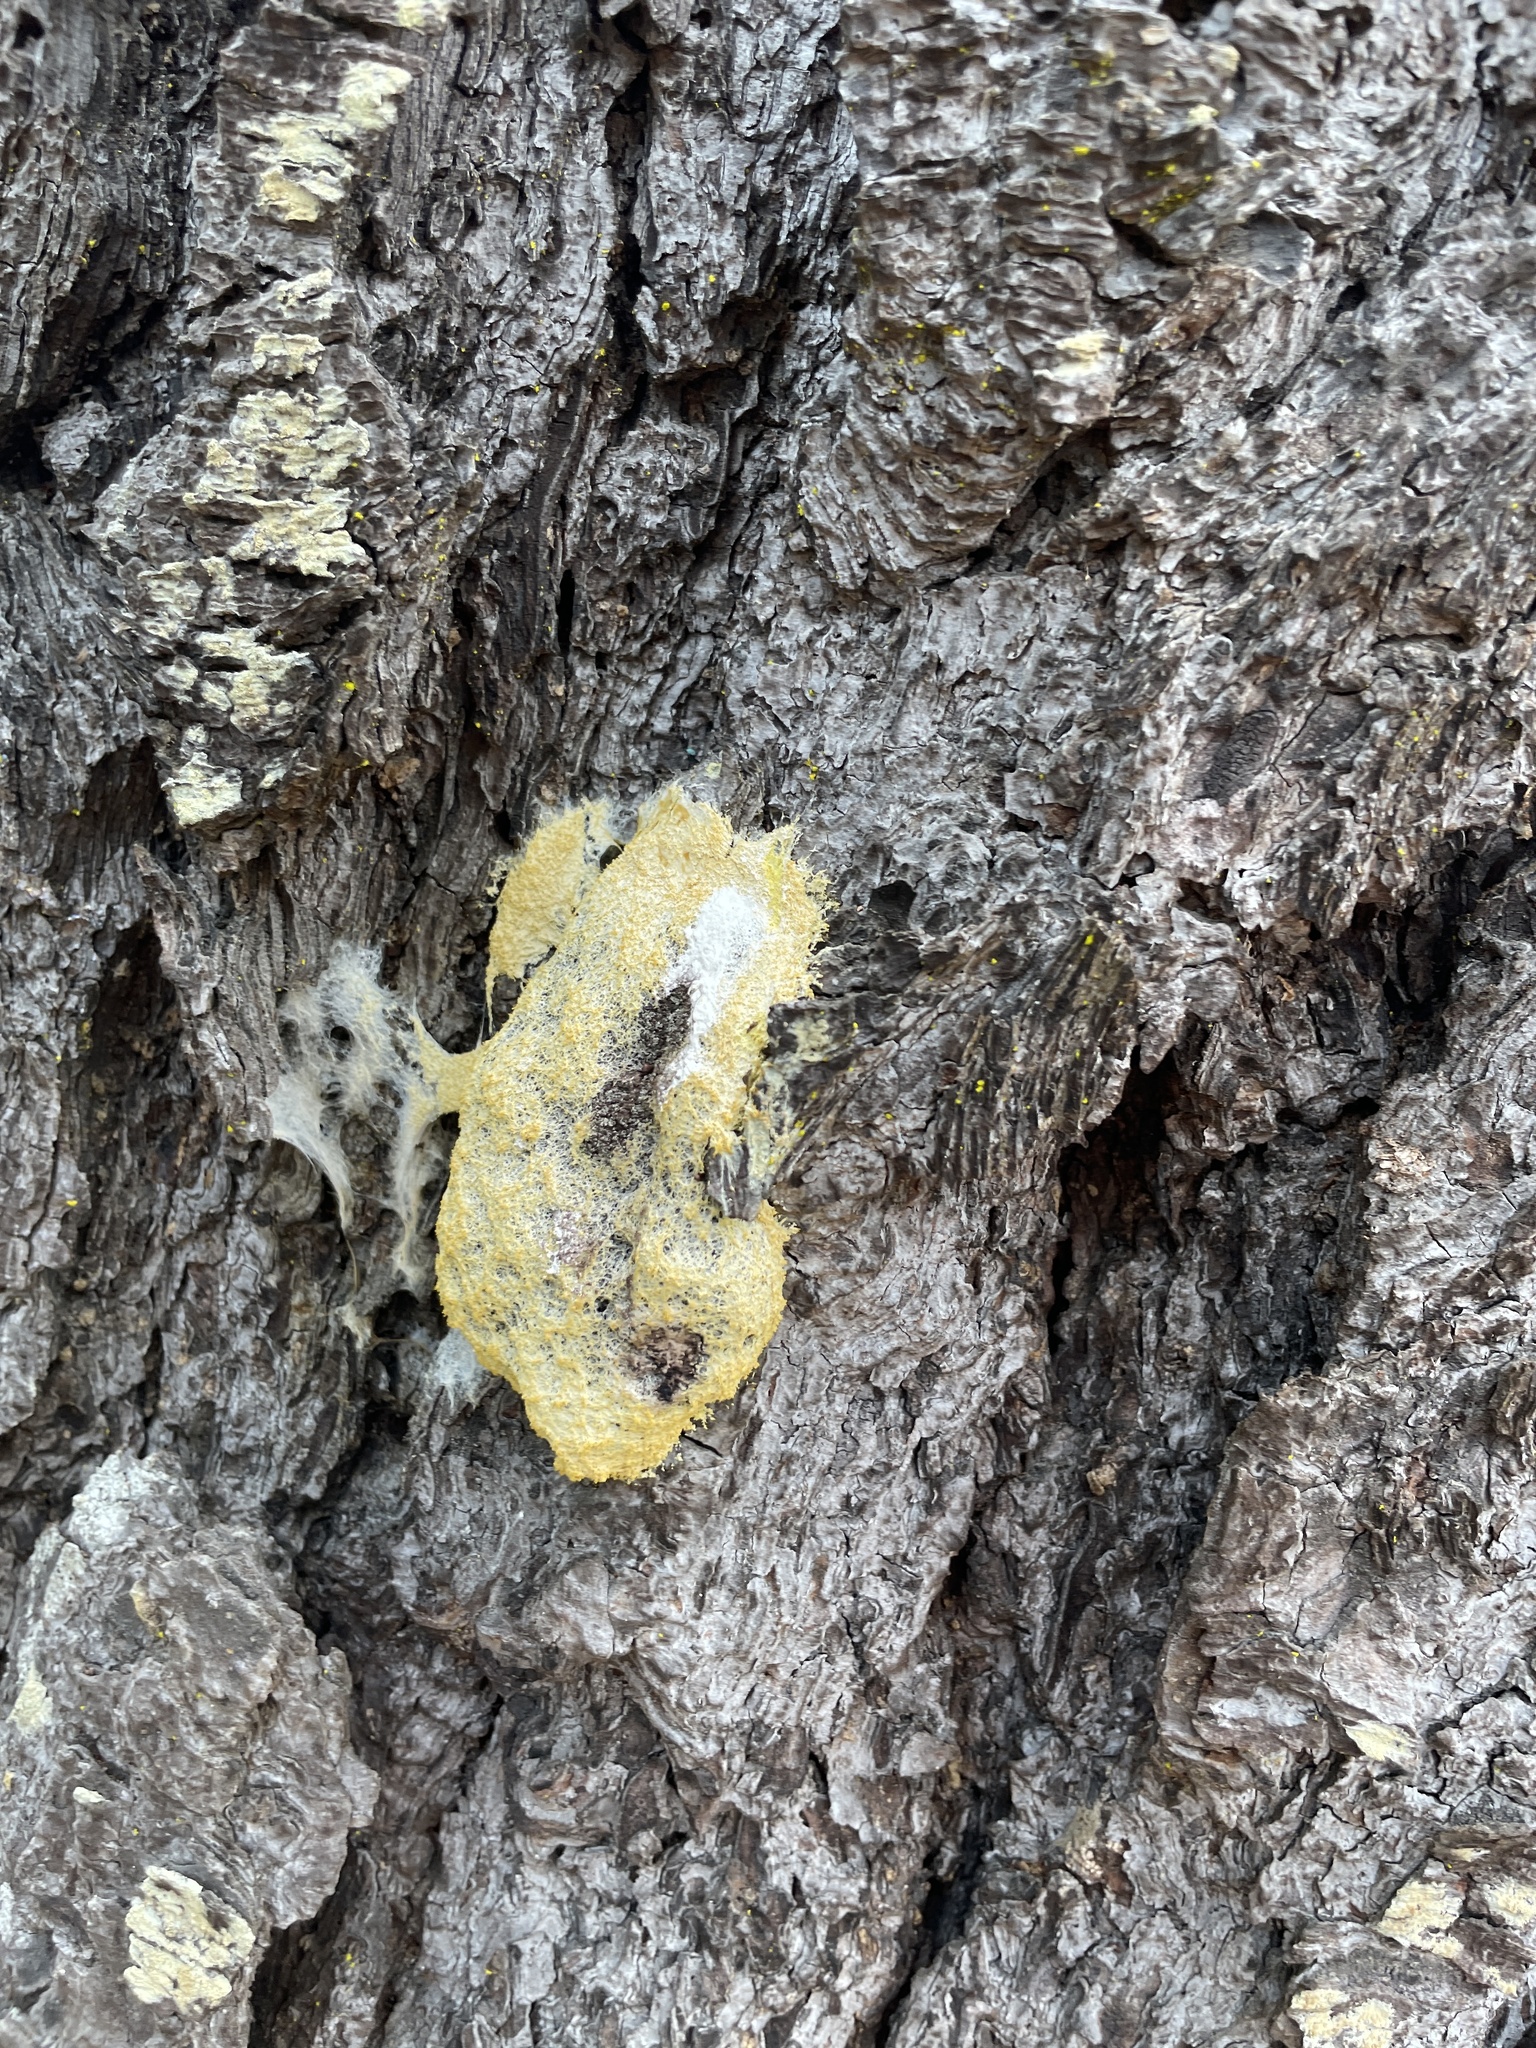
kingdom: Protozoa
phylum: Mycetozoa
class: Myxomycetes
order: Physarales
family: Physaraceae
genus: Fuligo
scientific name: Fuligo septica
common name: Dog vomit slime mold
